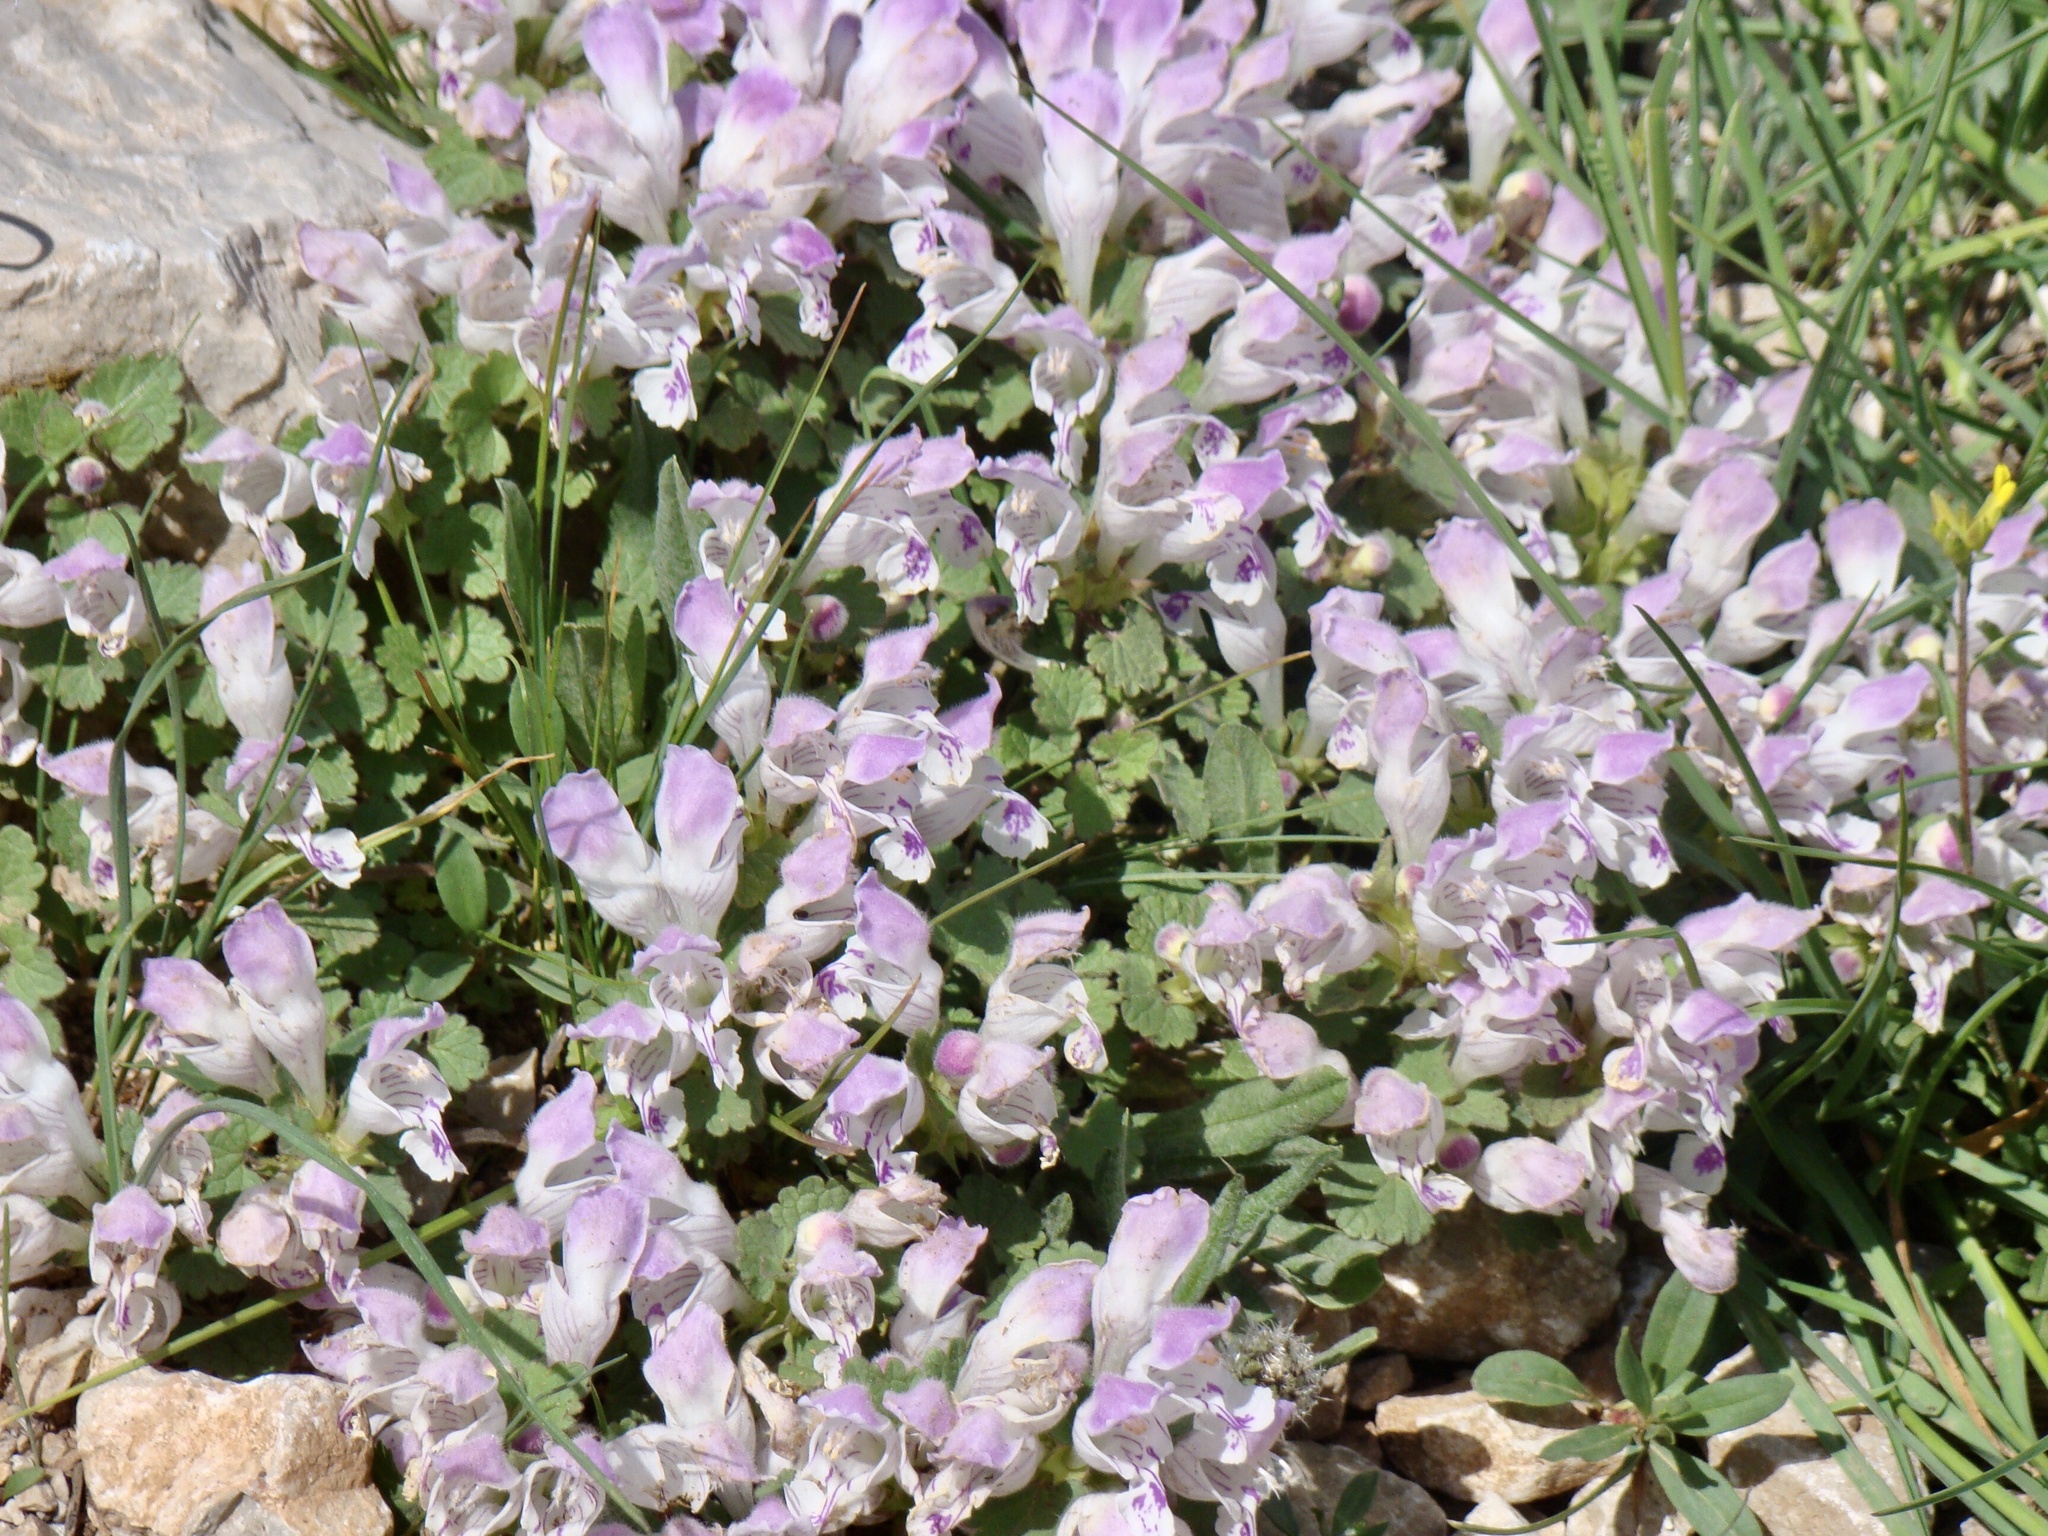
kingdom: Plantae
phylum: Tracheophyta
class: Magnoliopsida
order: Lamiales
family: Lamiaceae
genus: Lamium
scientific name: Lamium garganicum
